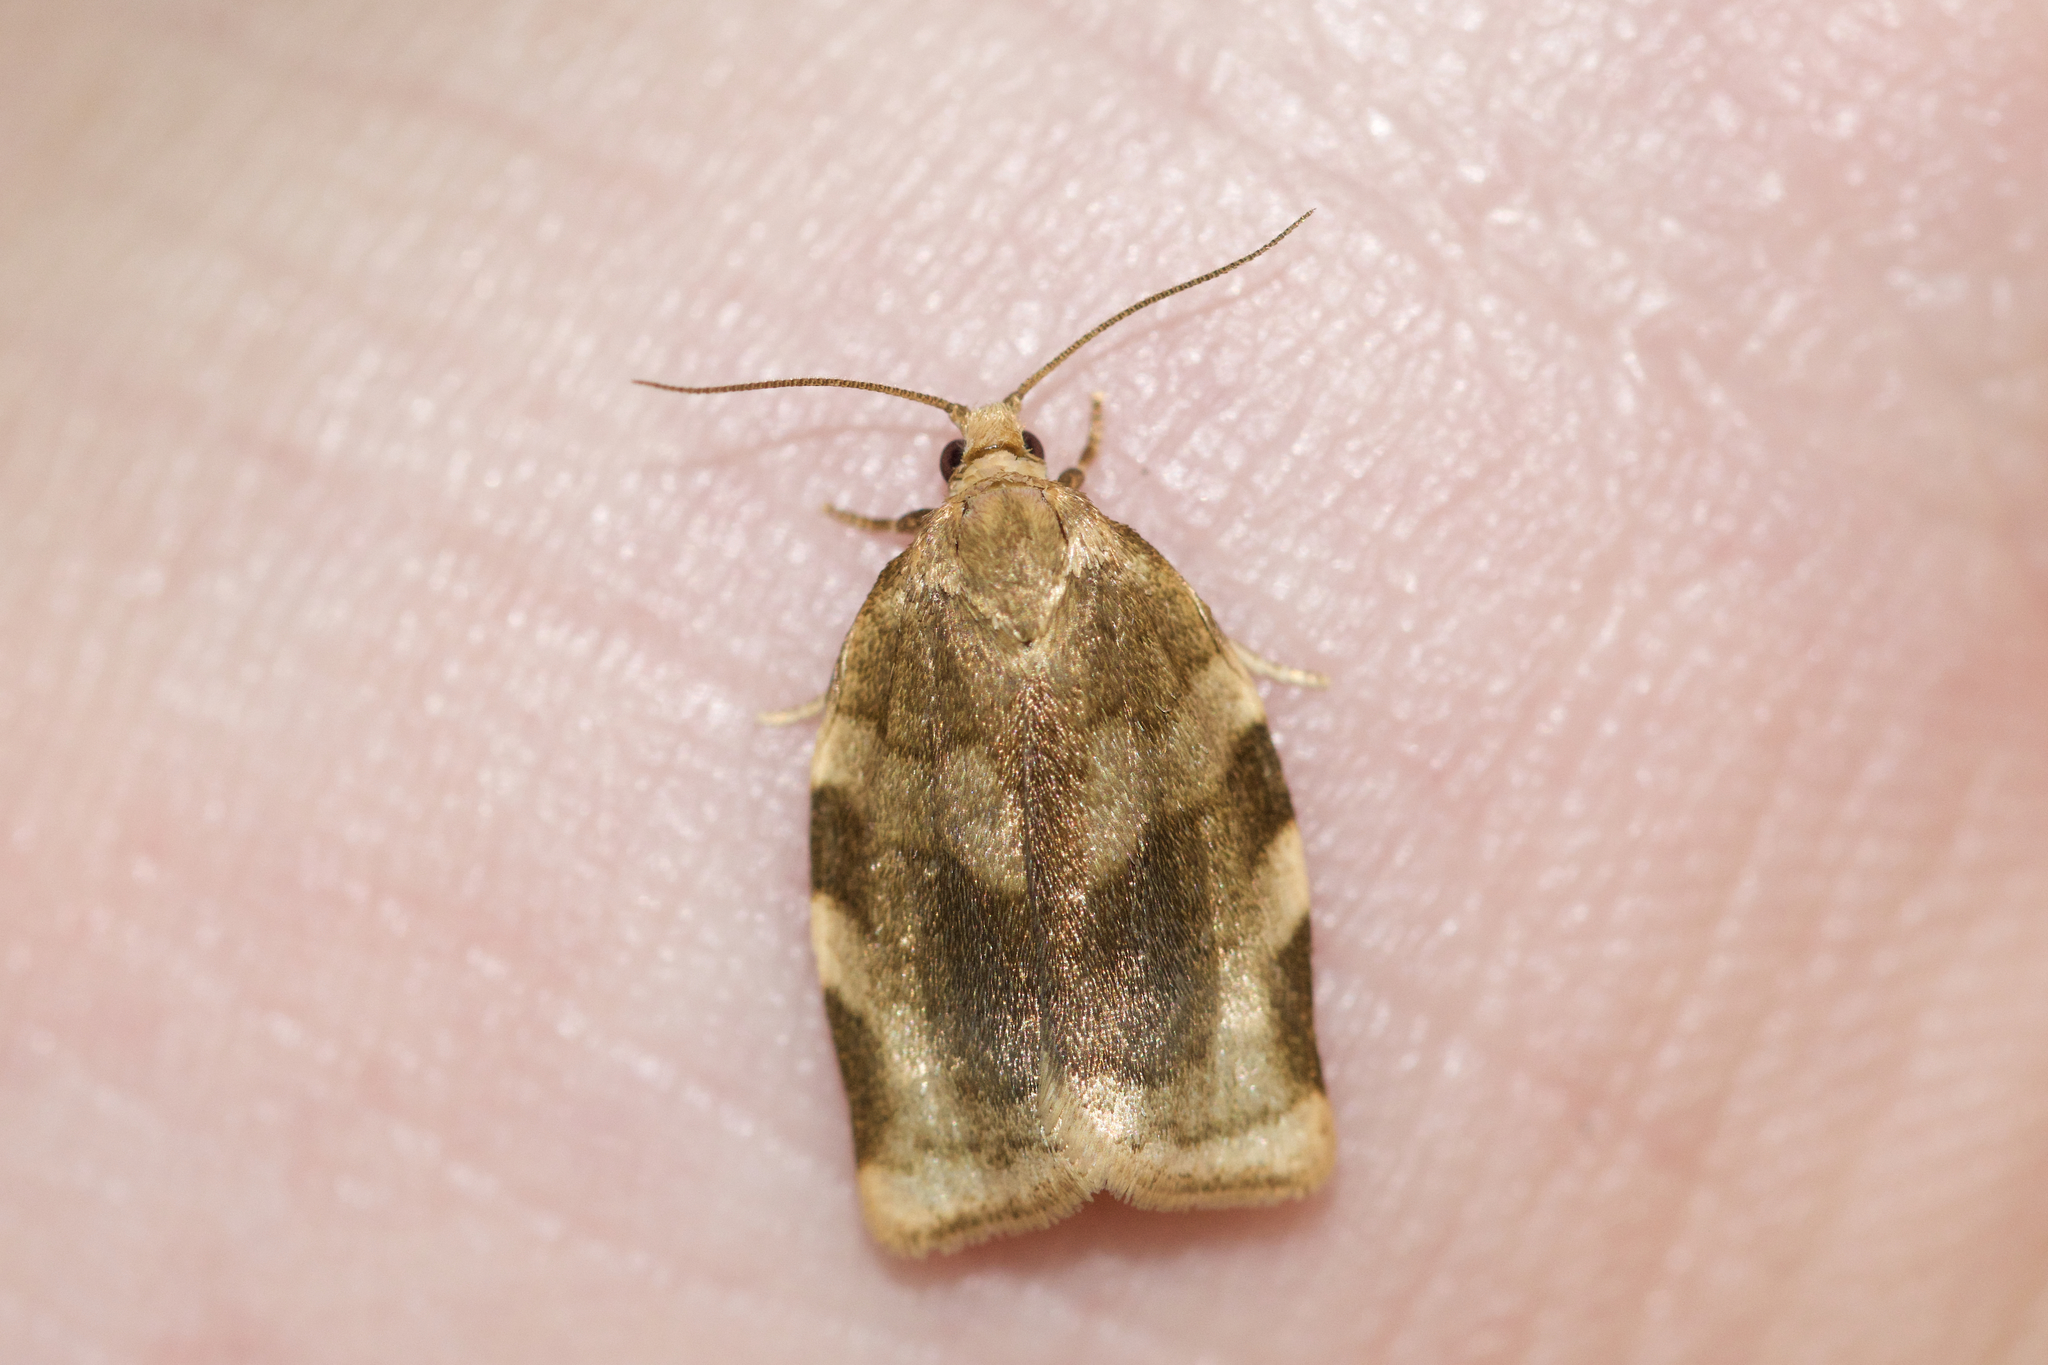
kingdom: Animalia
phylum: Arthropoda
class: Insecta
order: Lepidoptera
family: Tortricidae
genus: Choristoneura
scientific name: Choristoneura fractivittana
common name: Broken-banded leafroller moth
